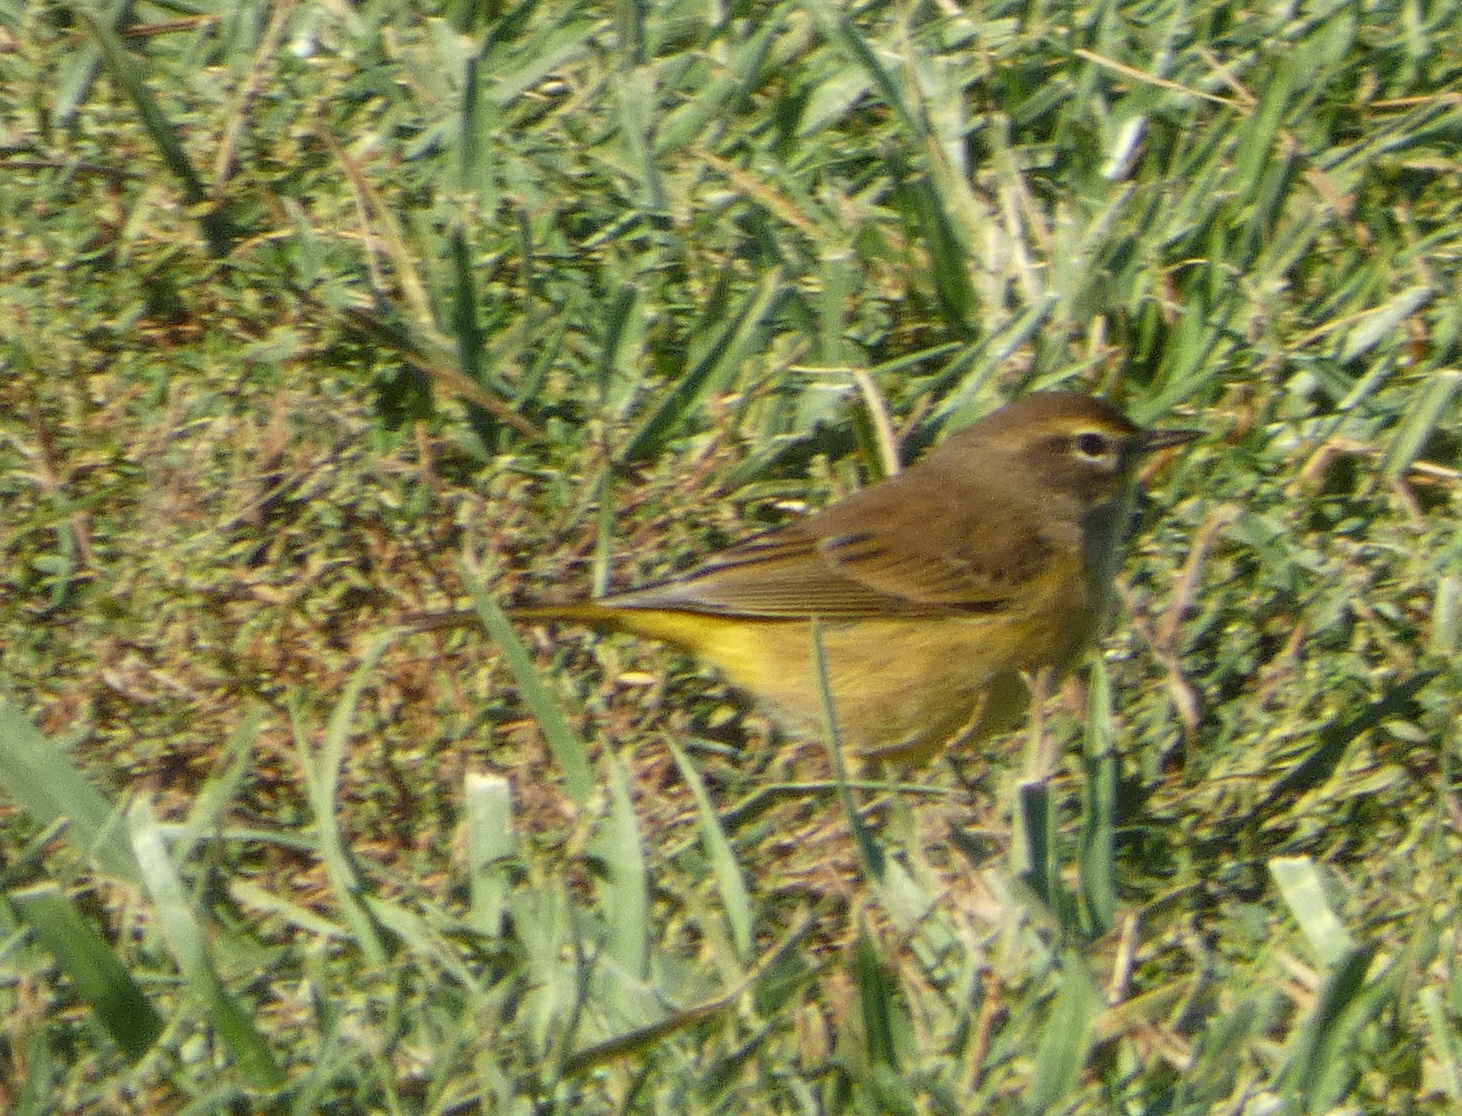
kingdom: Animalia
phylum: Chordata
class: Aves
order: Passeriformes
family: Parulidae
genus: Setophaga
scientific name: Setophaga palmarum
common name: Palm warbler
